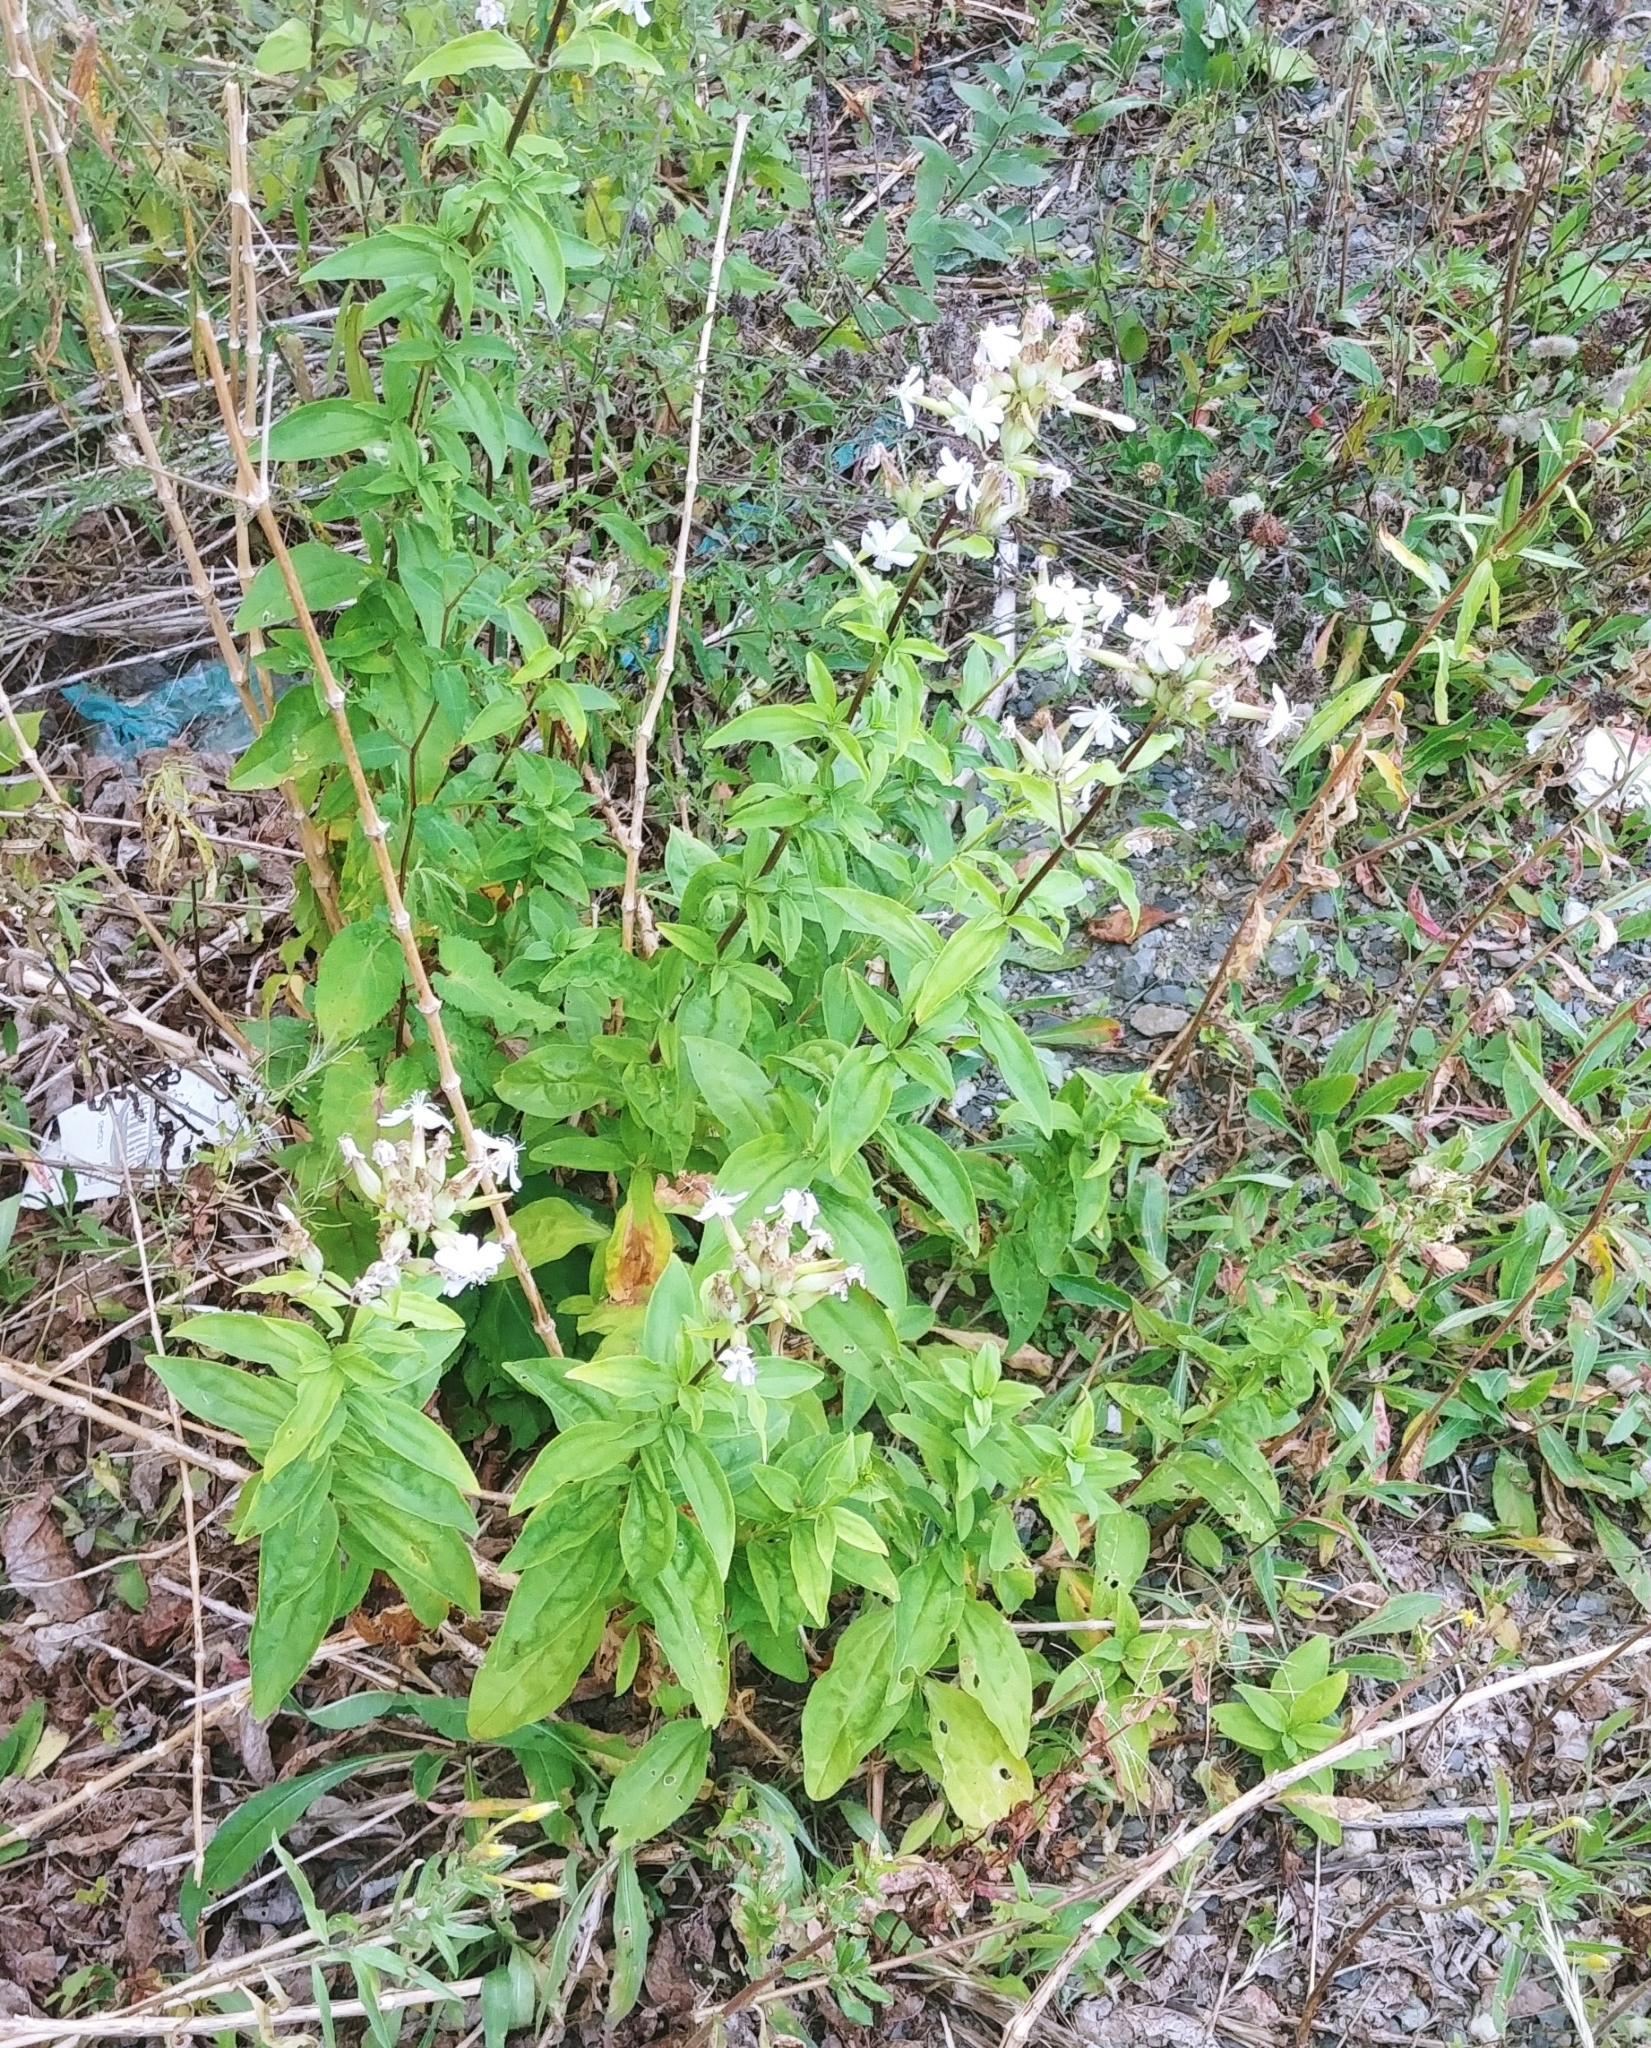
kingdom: Plantae
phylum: Tracheophyta
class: Magnoliopsida
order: Caryophyllales
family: Caryophyllaceae
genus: Saponaria
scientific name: Saponaria officinalis
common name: Soapwort
